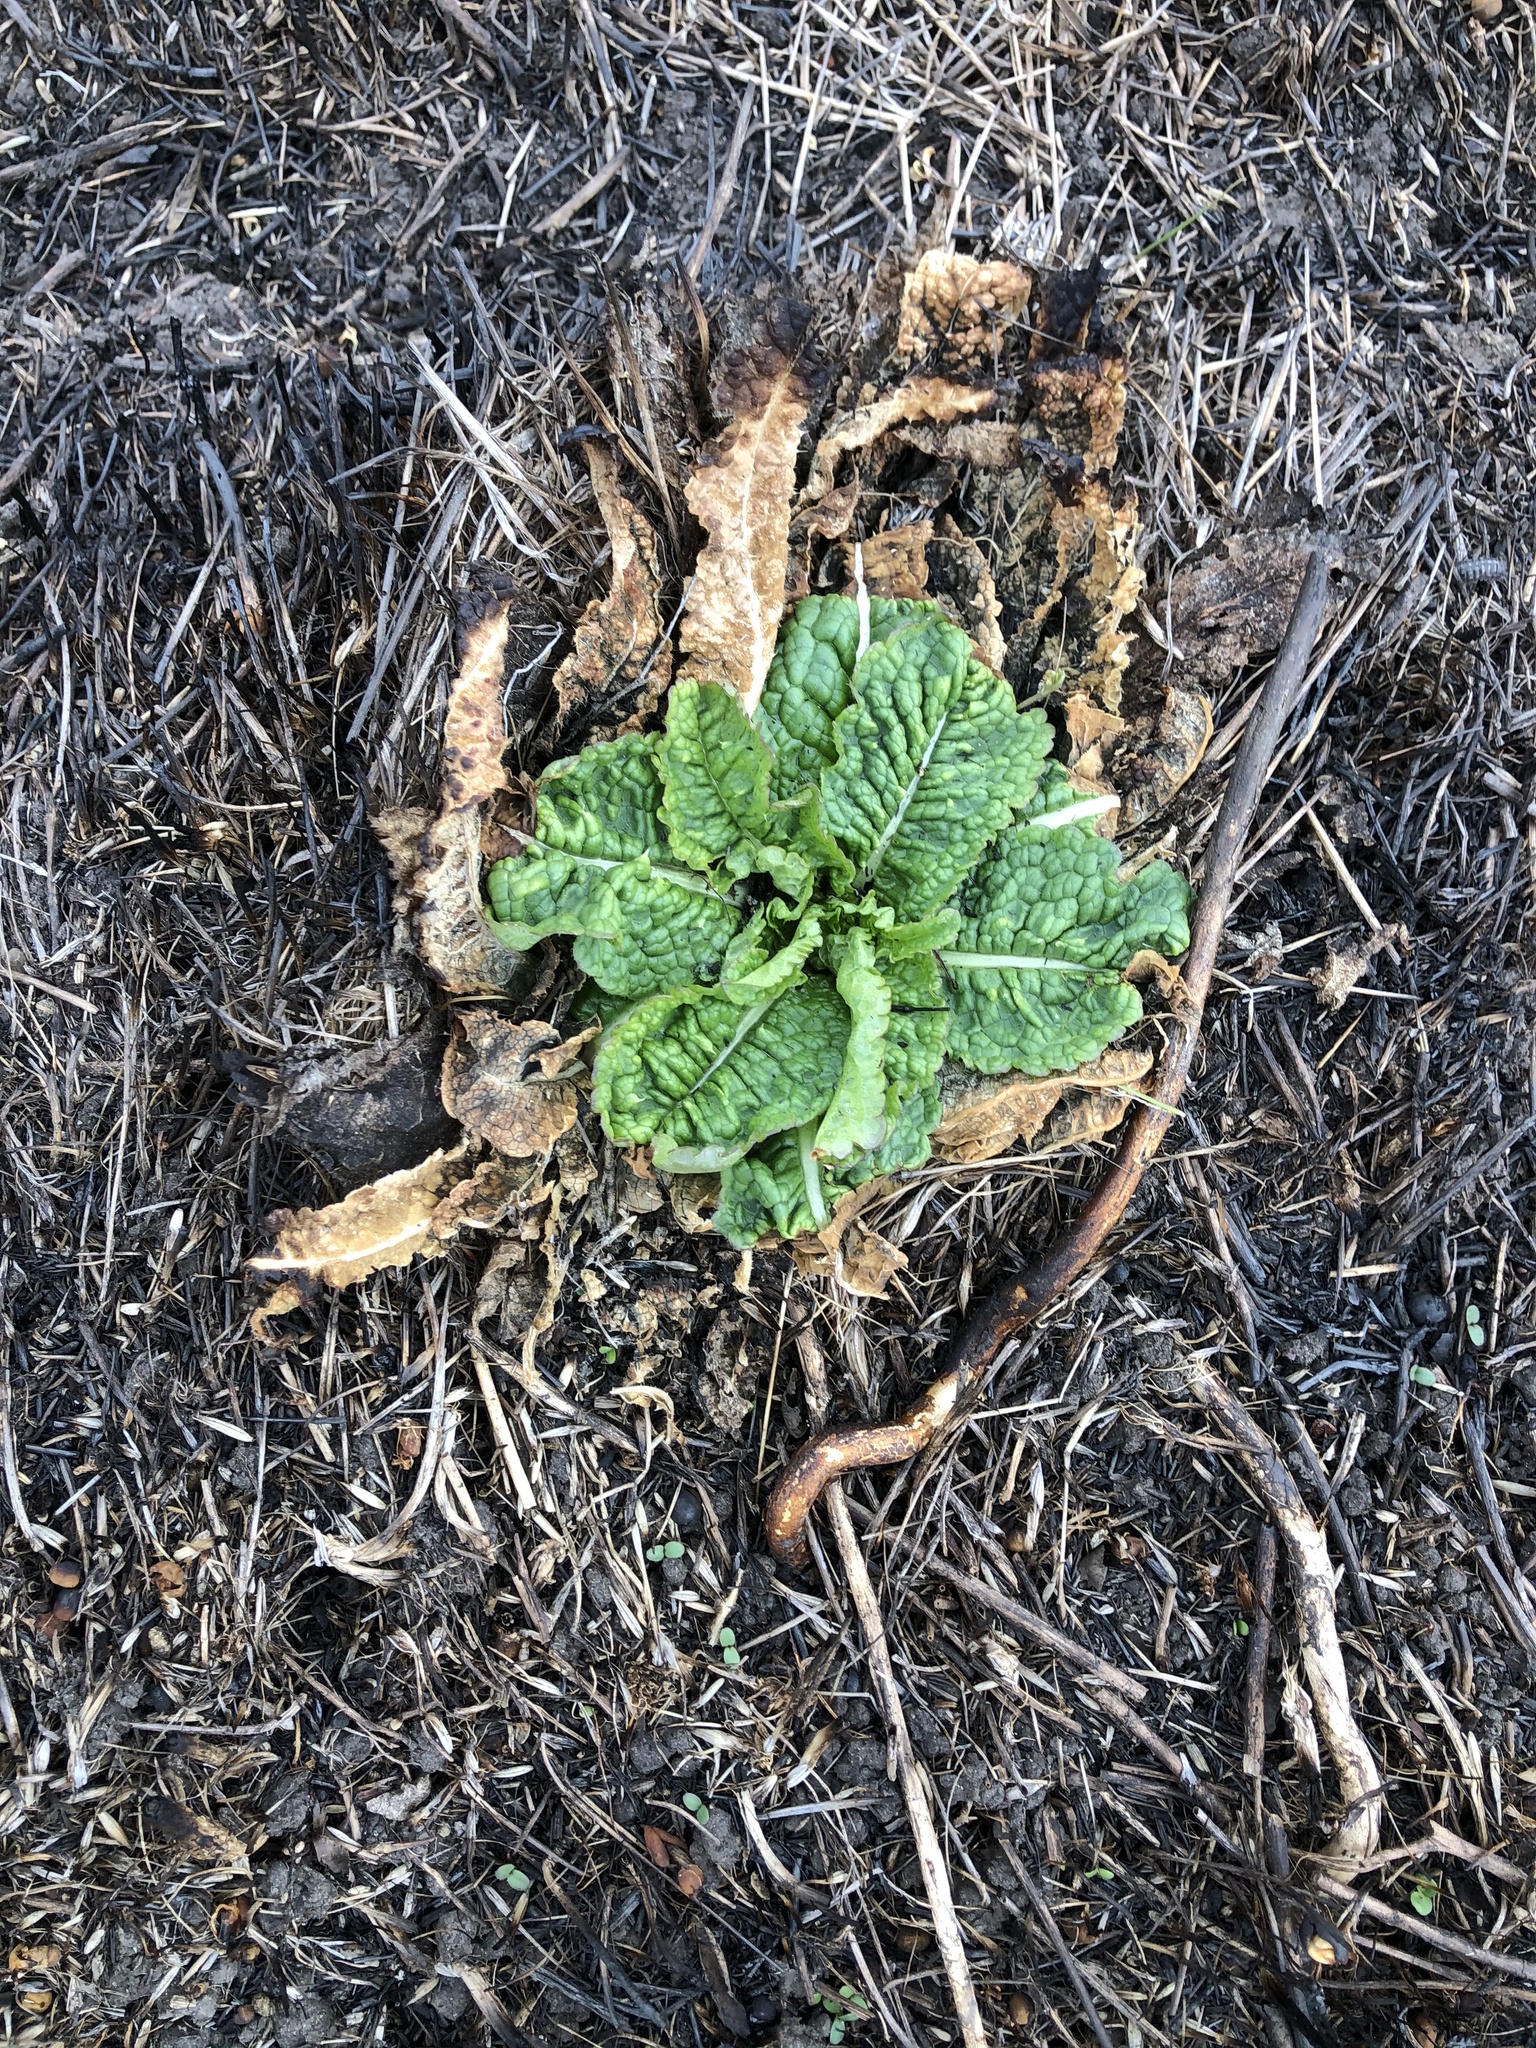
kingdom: Plantae
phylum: Tracheophyta
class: Magnoliopsida
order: Dipsacales
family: Caprifoliaceae
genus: Dipsacus
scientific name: Dipsacus fullonum
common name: Teasel
